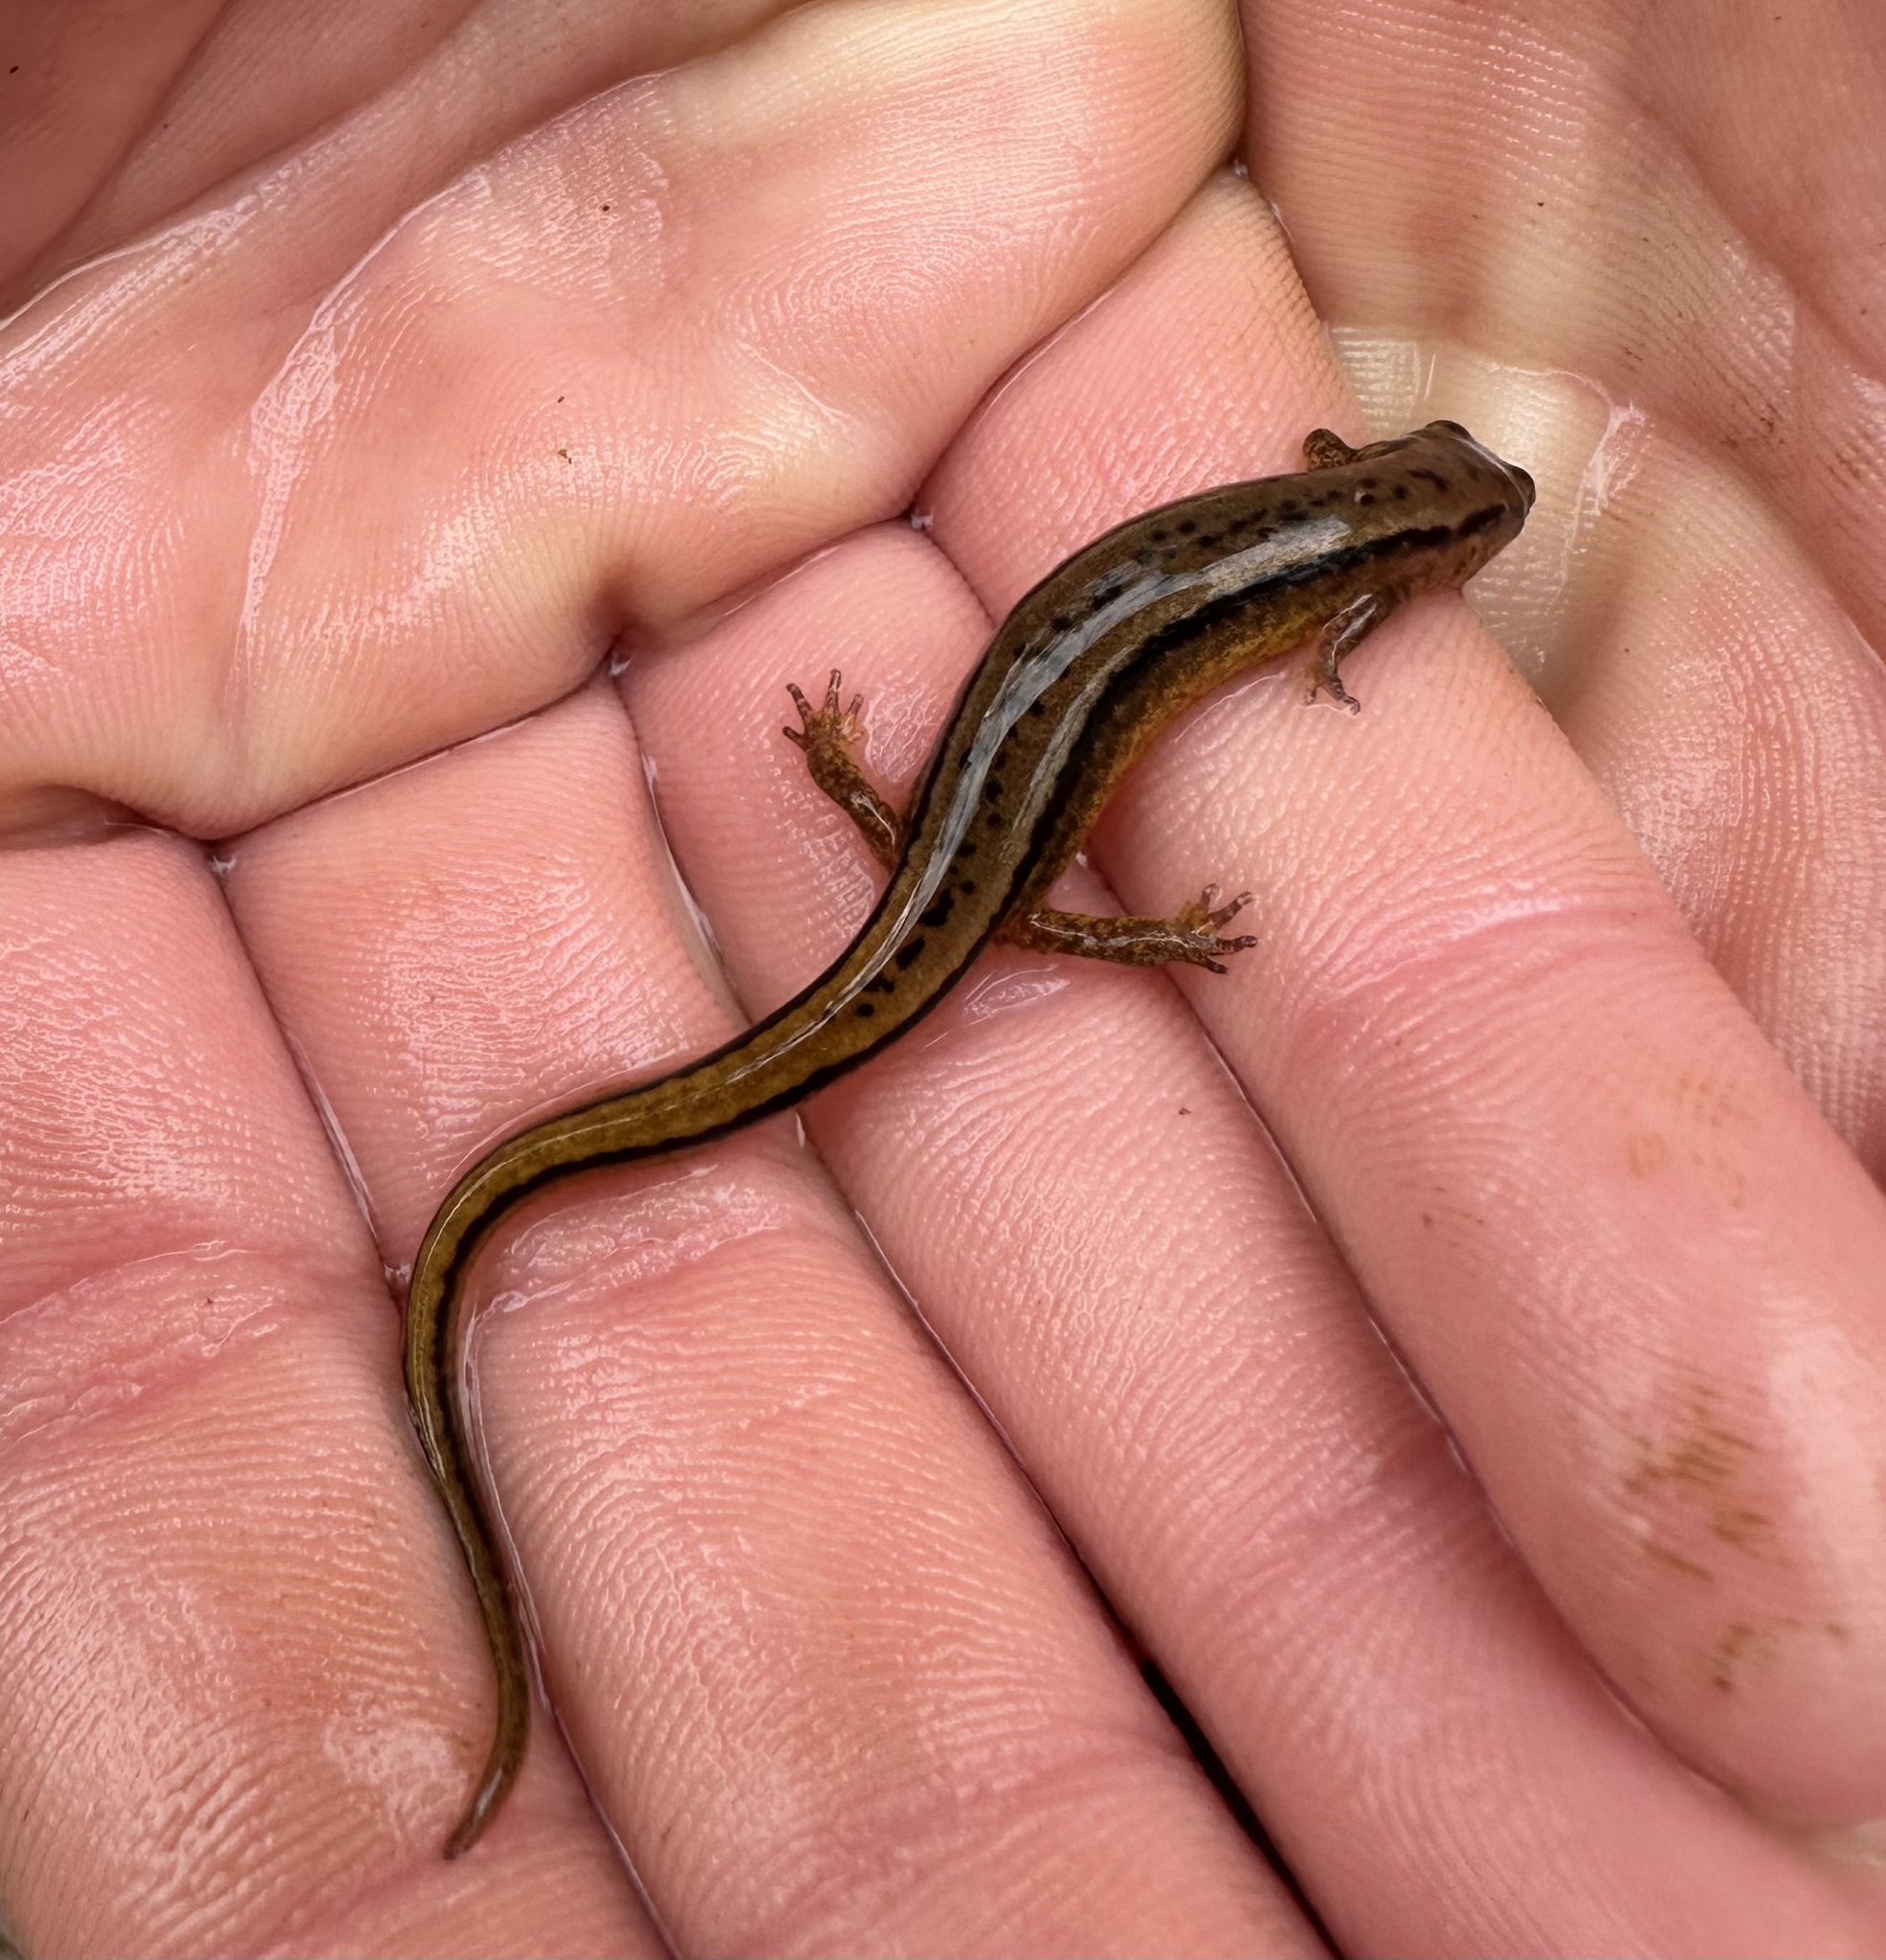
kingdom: Animalia
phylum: Chordata
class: Amphibia
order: Caudata
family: Plethodontidae
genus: Eurycea
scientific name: Eurycea cirrigera
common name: Southern two-lined salamander
